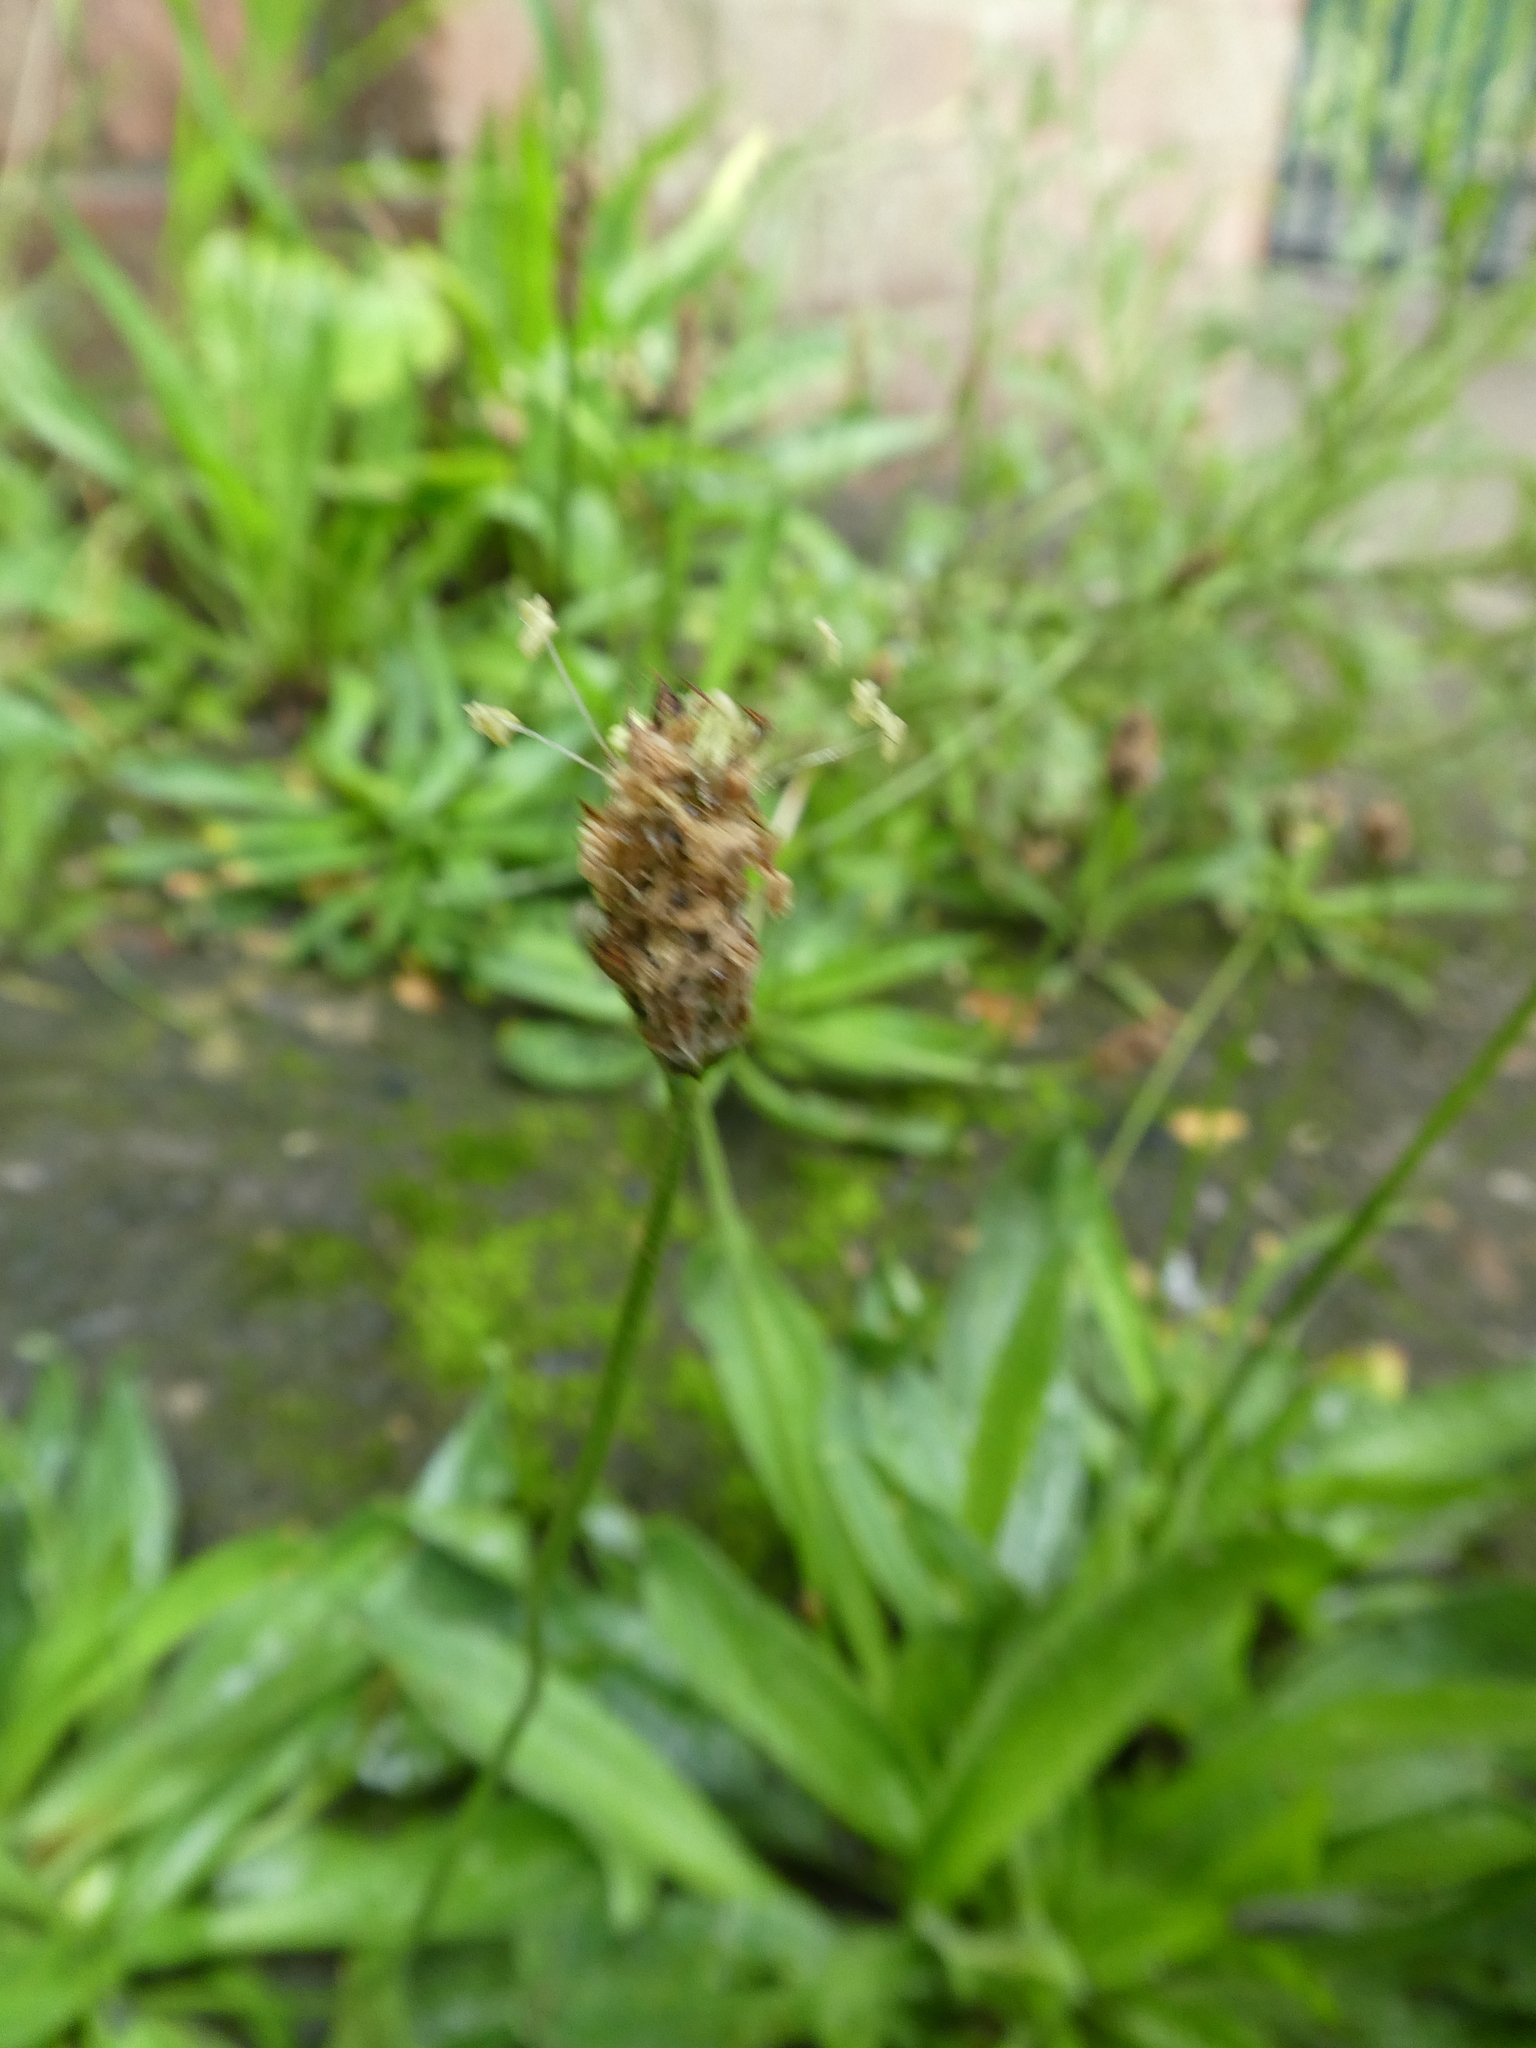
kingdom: Plantae
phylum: Tracheophyta
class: Magnoliopsida
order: Lamiales
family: Plantaginaceae
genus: Plantago
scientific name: Plantago lanceolata
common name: Ribwort plantain
